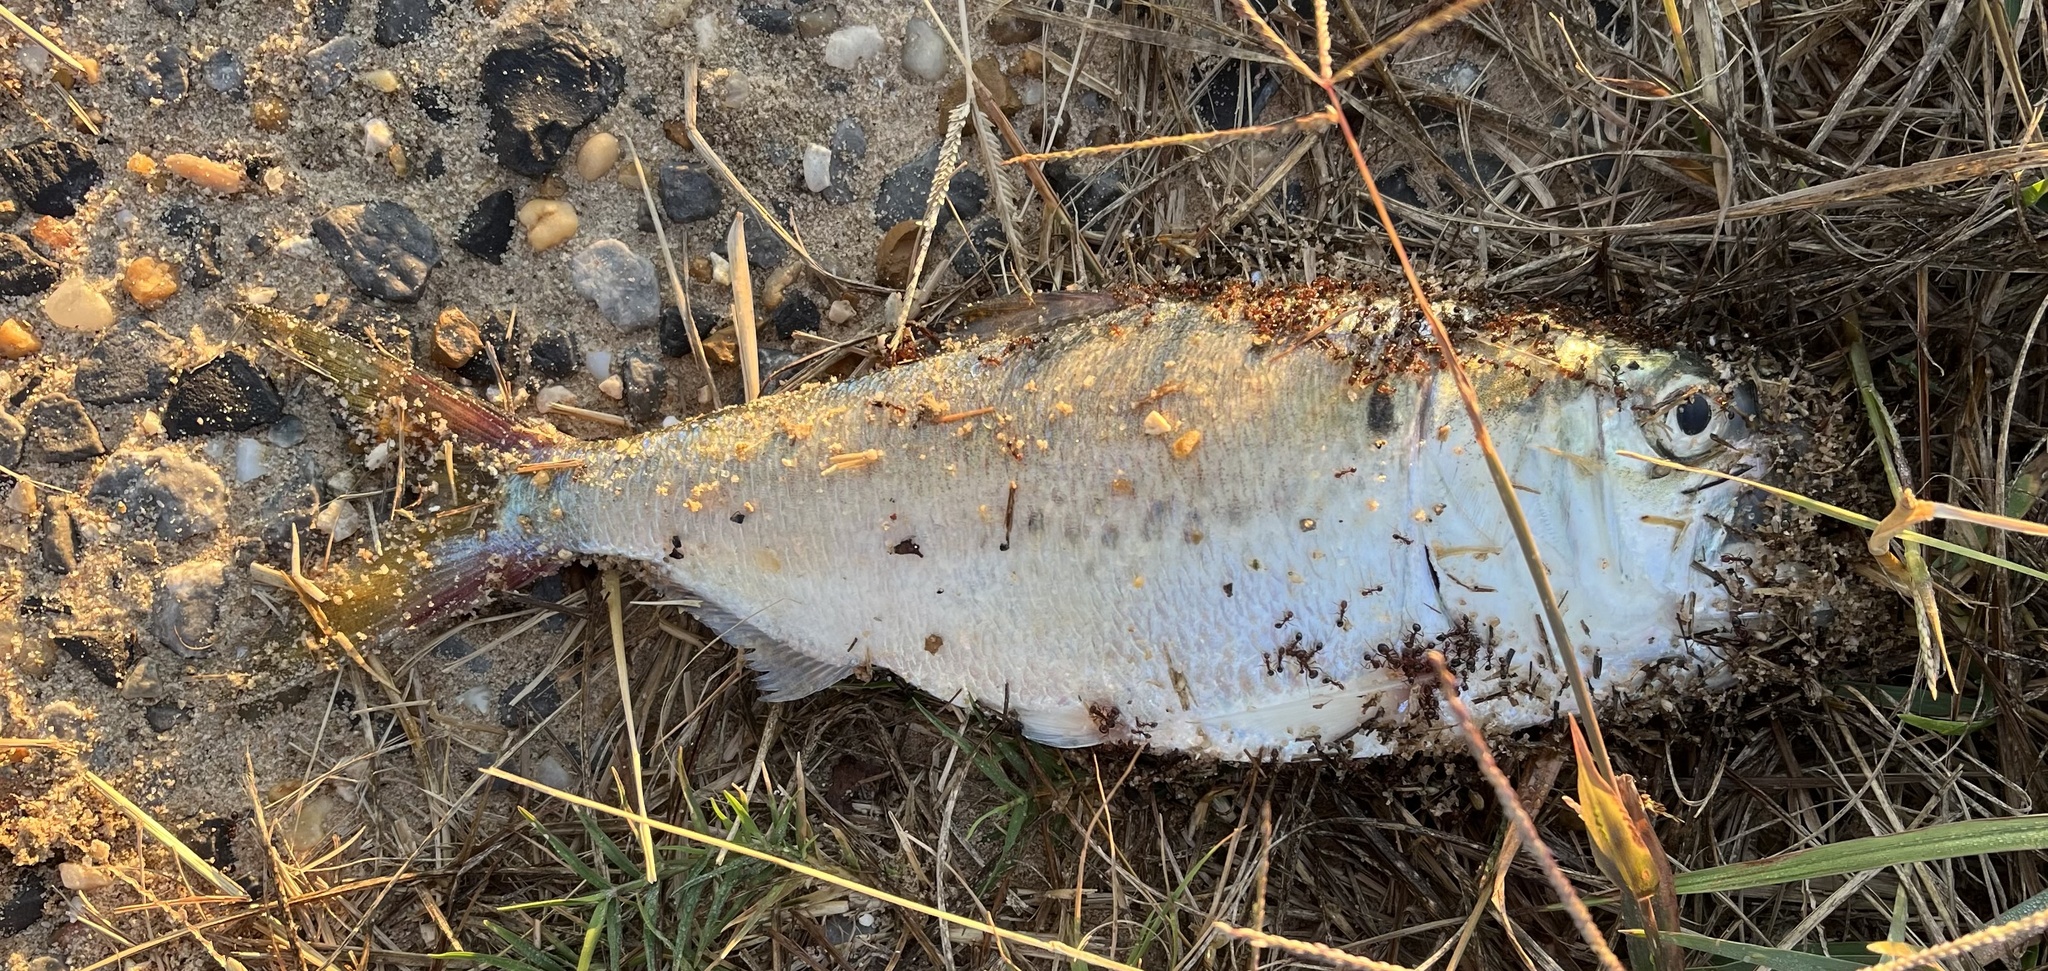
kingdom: Animalia
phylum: Chordata
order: Clupeiformes
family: Clupeidae
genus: Brevoortia
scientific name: Brevoortia patronus
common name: Gulf menhaden
